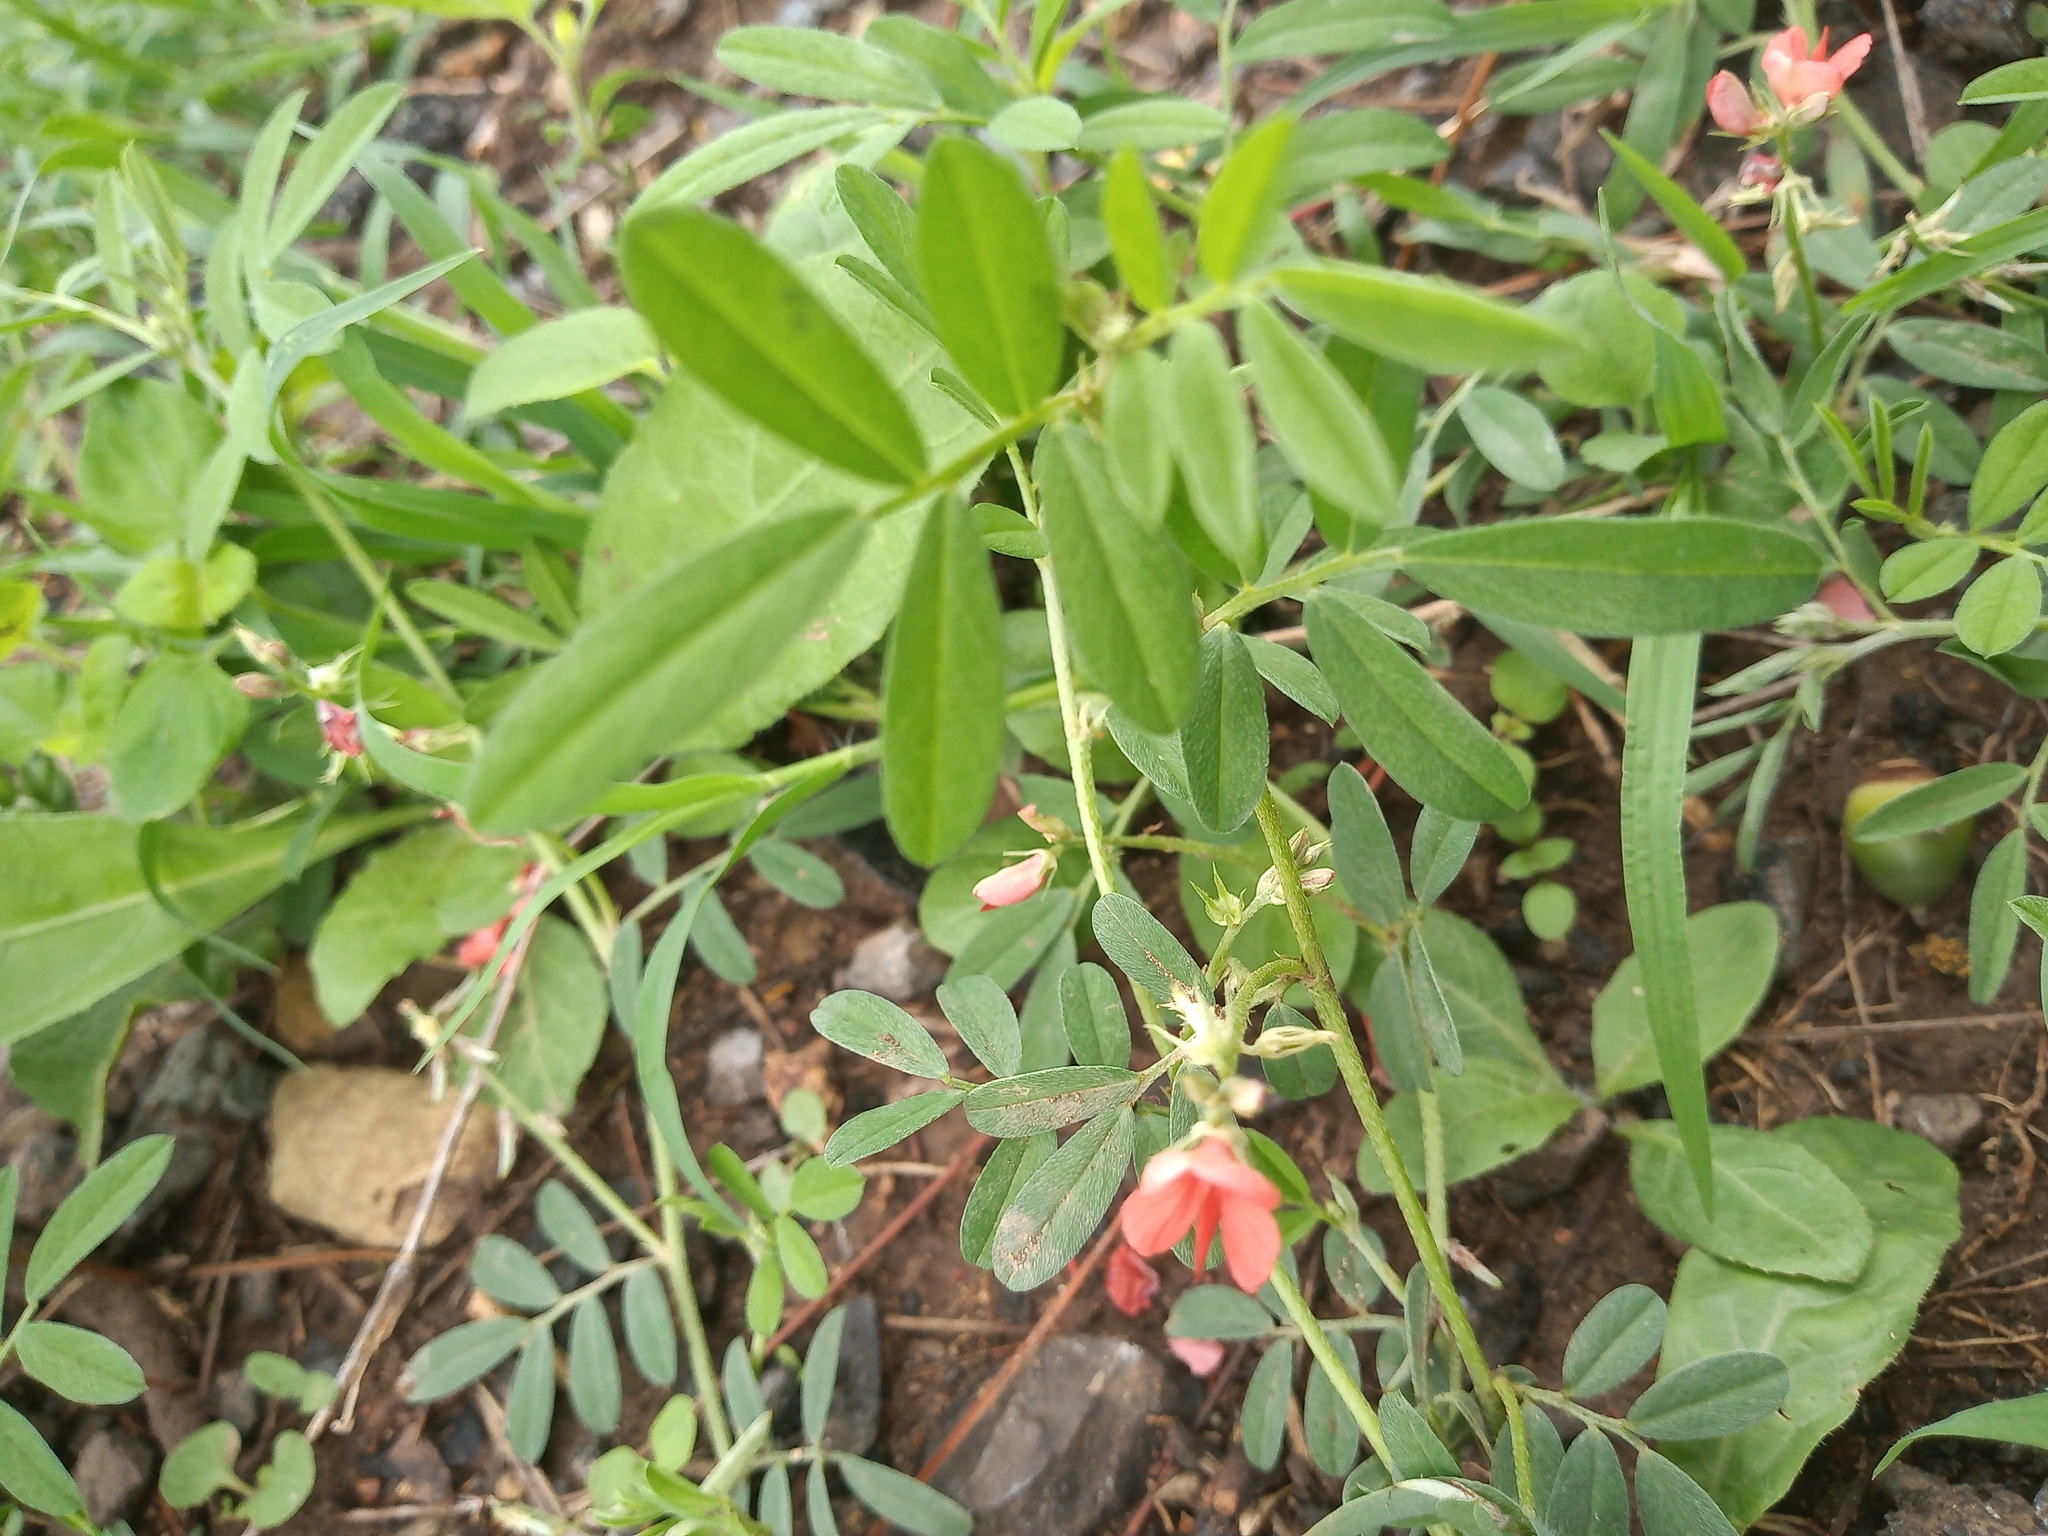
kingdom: Plantae
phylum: Tracheophyta
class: Magnoliopsida
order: Fabales
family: Fabaceae
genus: Indigofera
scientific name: Indigofera miniata
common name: Coast indigo
